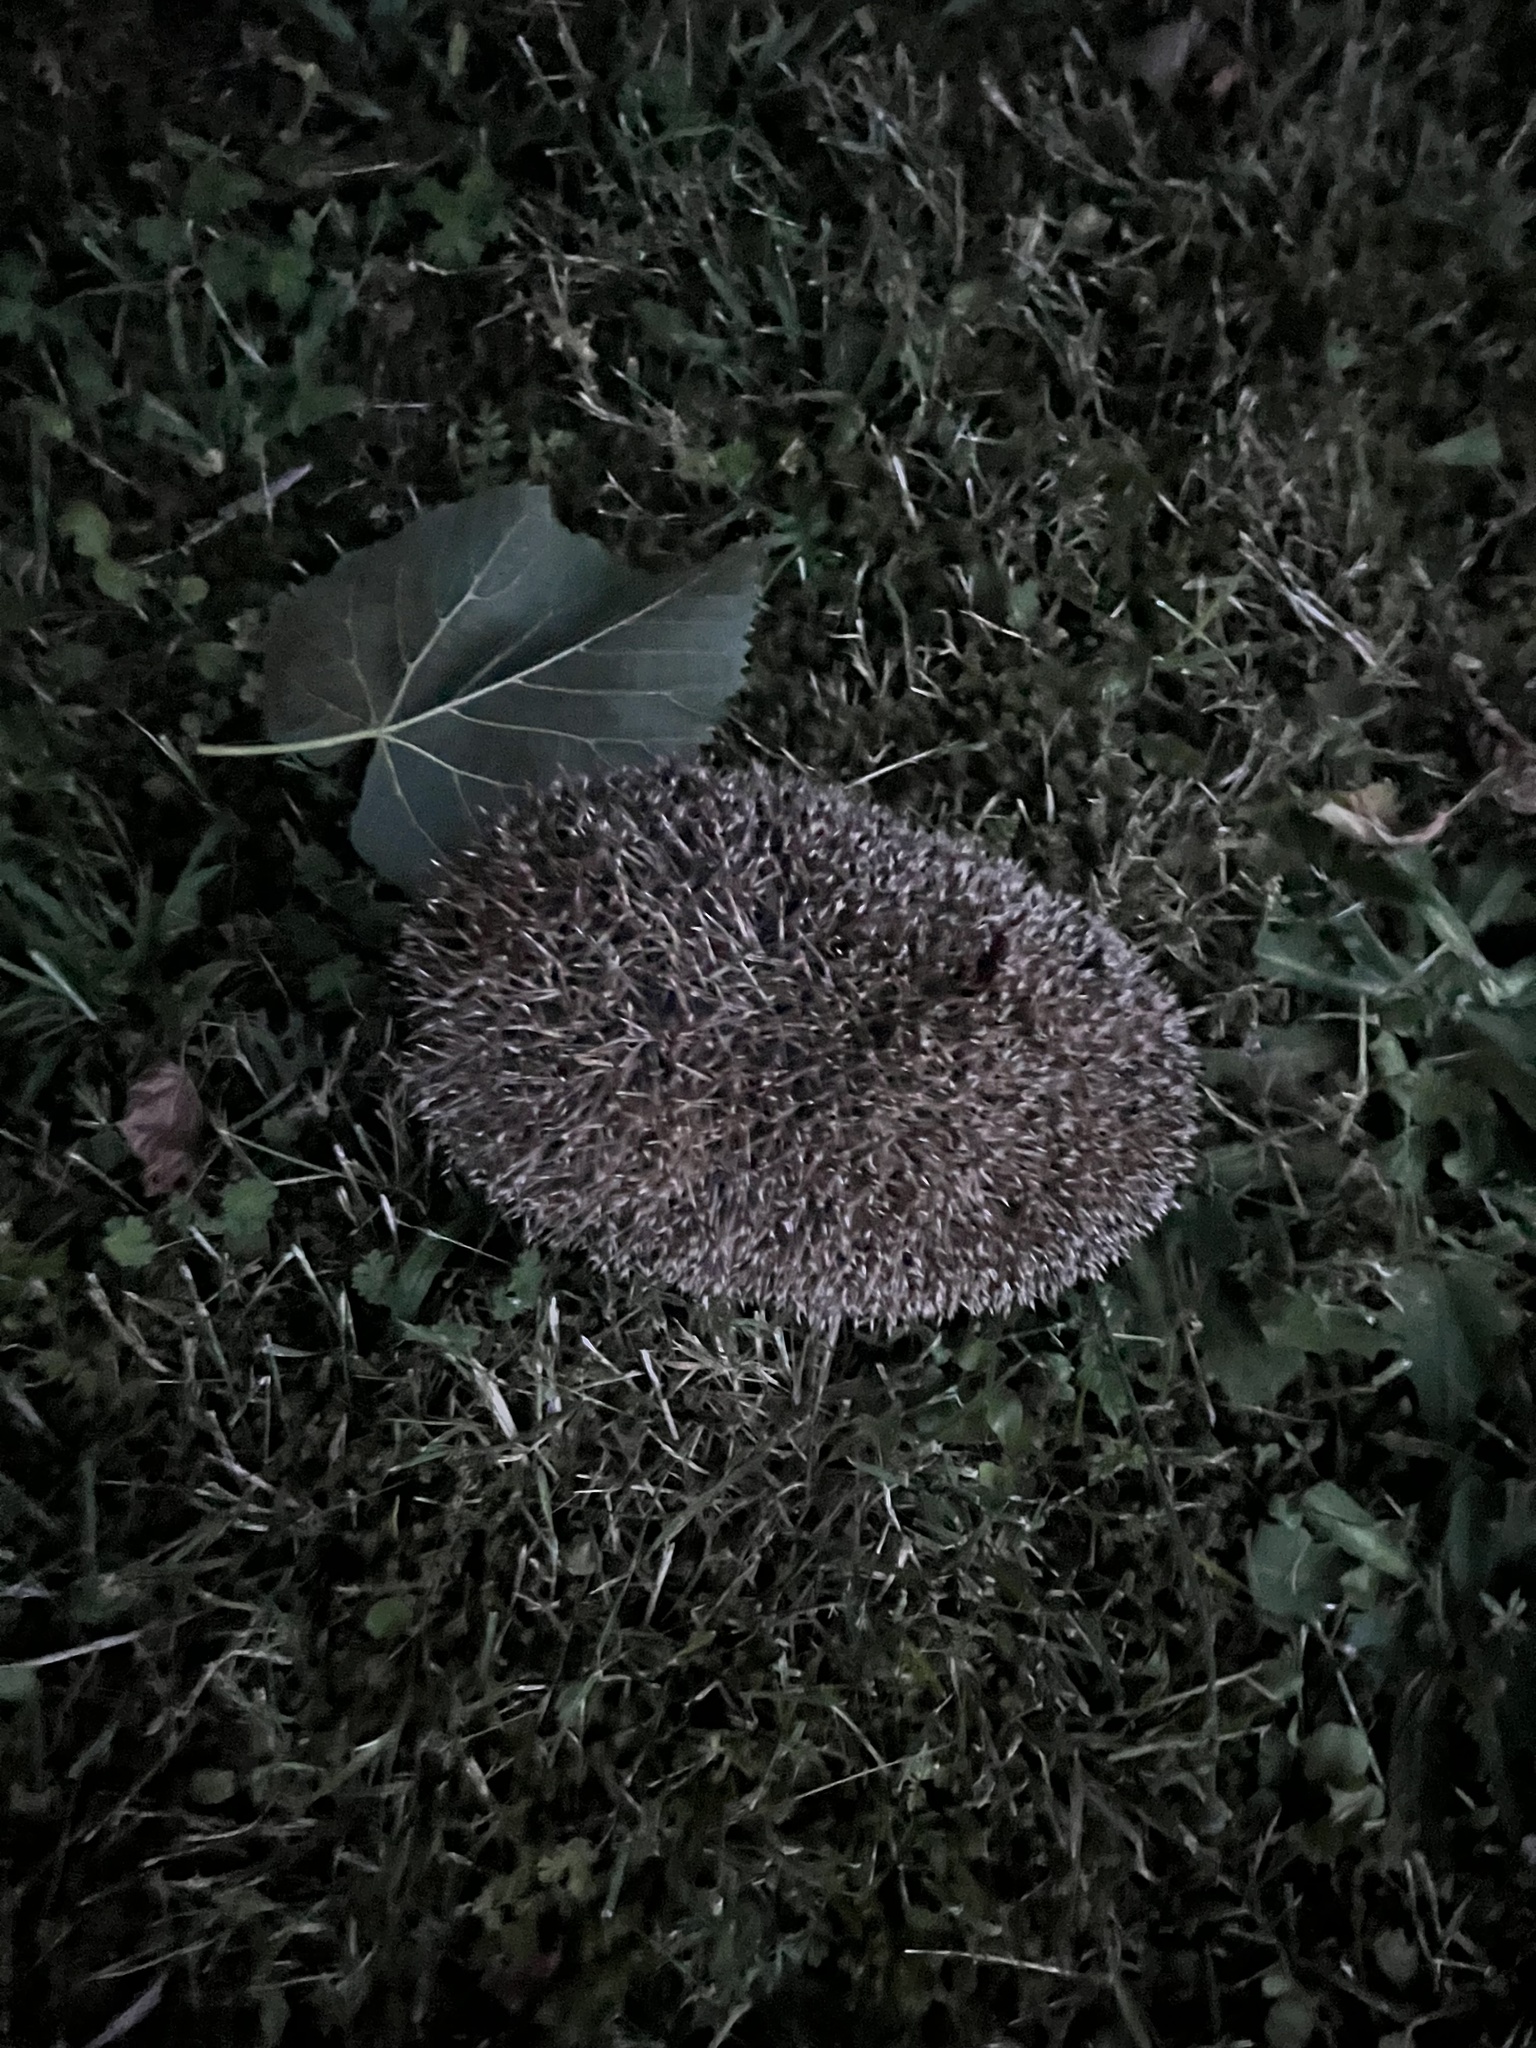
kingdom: Animalia
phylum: Chordata
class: Mammalia
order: Erinaceomorpha
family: Erinaceidae
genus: Erinaceus
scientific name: Erinaceus europaeus
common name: West european hedgehog
